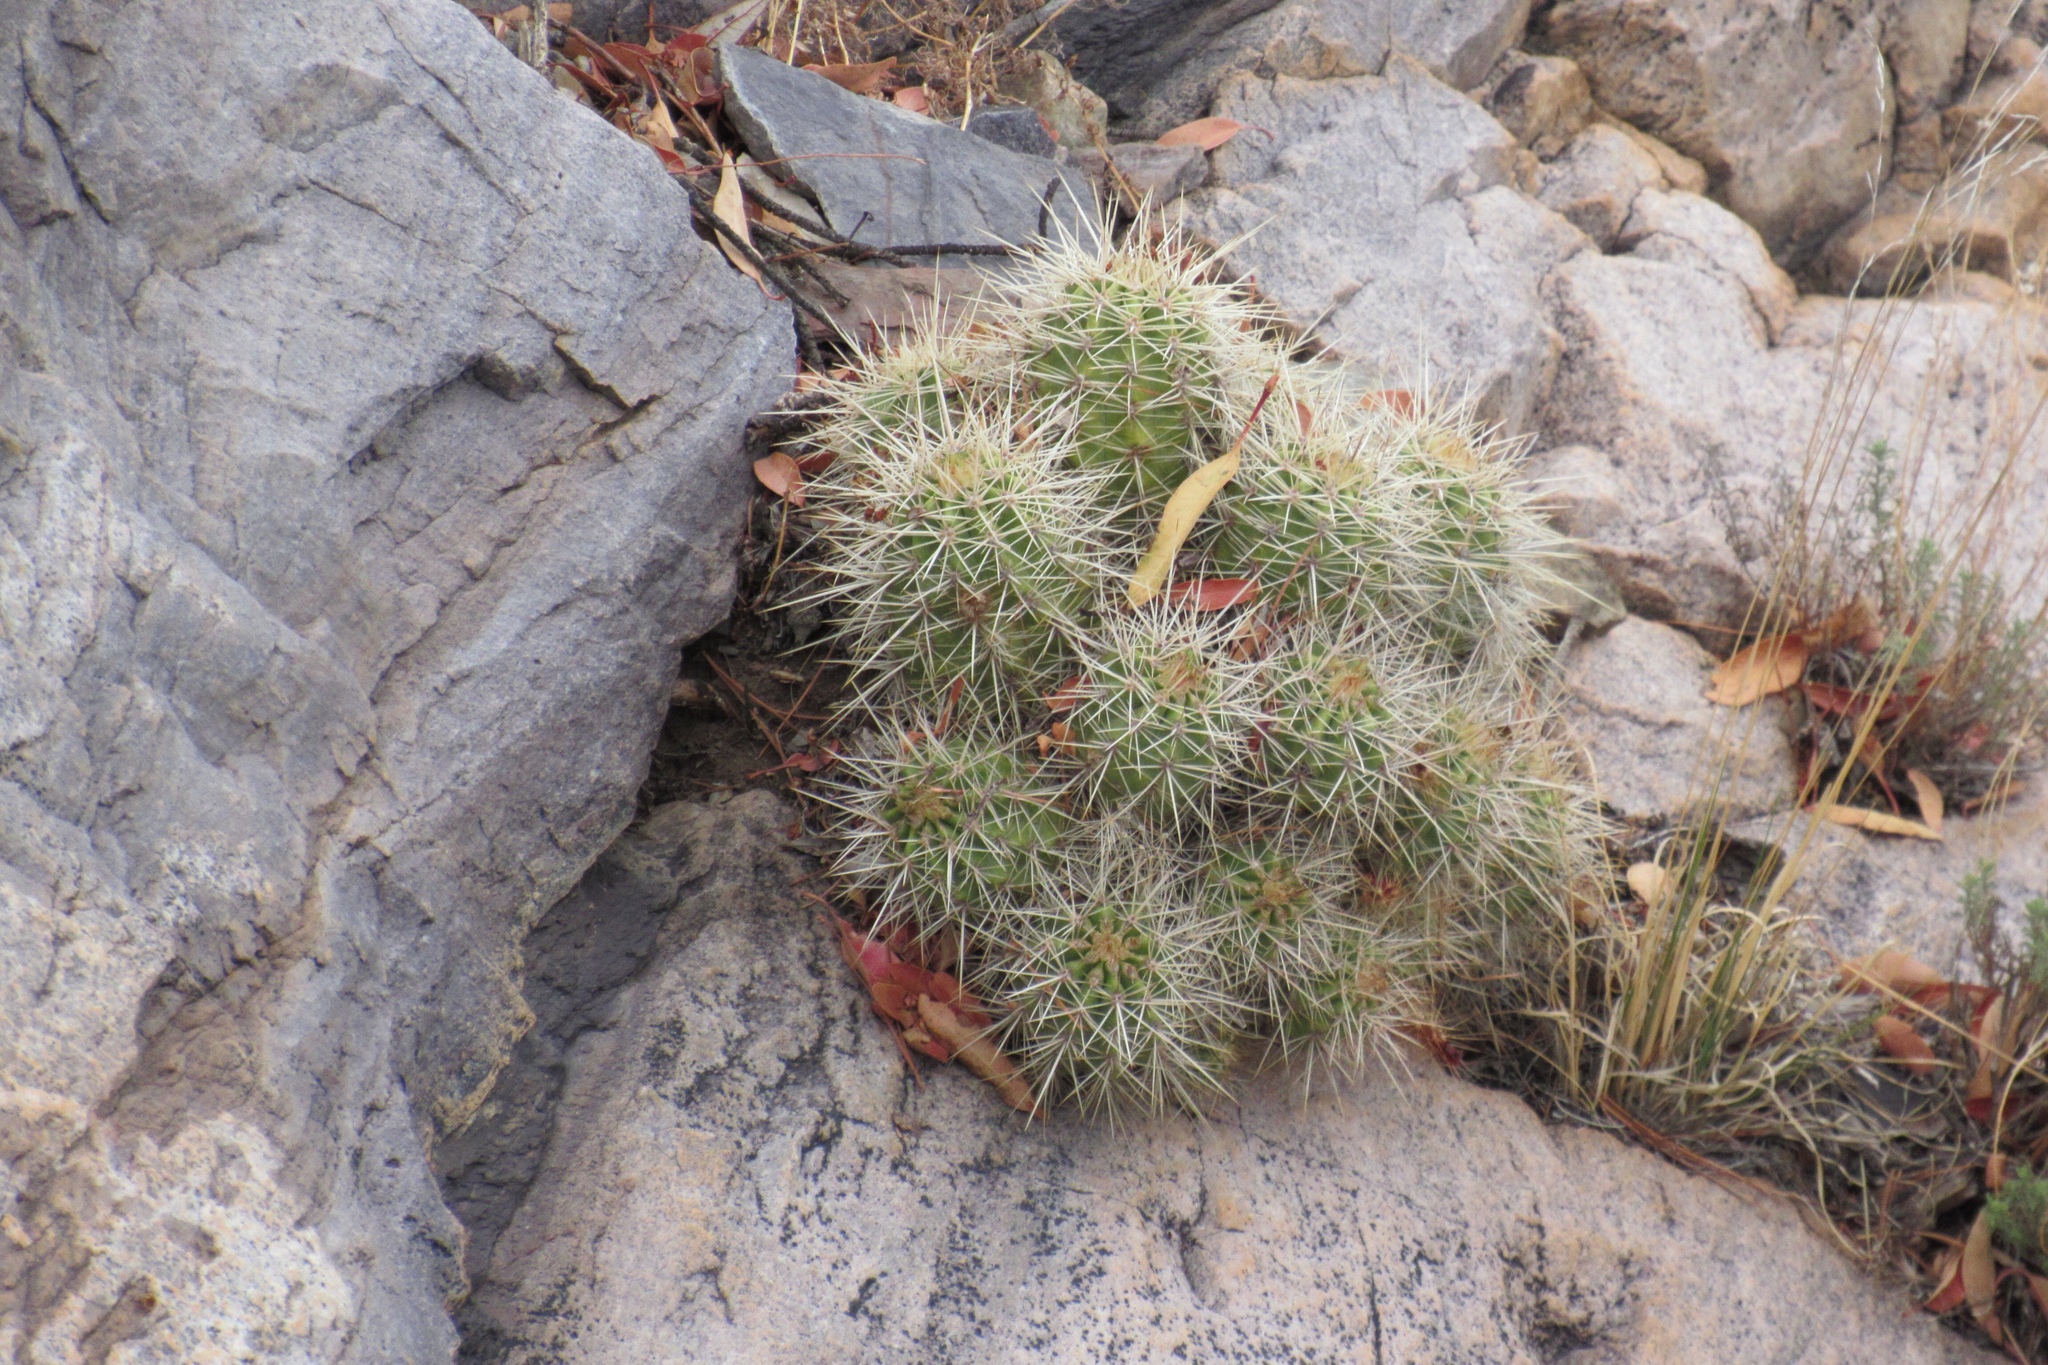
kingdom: Plantae
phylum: Tracheophyta
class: Magnoliopsida
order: Caryophyllales
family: Cactaceae
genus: Echinocereus
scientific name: Echinocereus coccineus
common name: Scarlet hedgehog cactus
